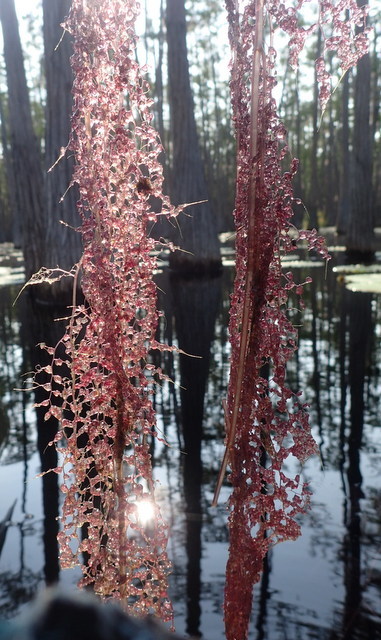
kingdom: Plantae
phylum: Tracheophyta
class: Magnoliopsida
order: Lamiales
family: Lentibulariaceae
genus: Utricularia
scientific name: Utricularia foliosa
